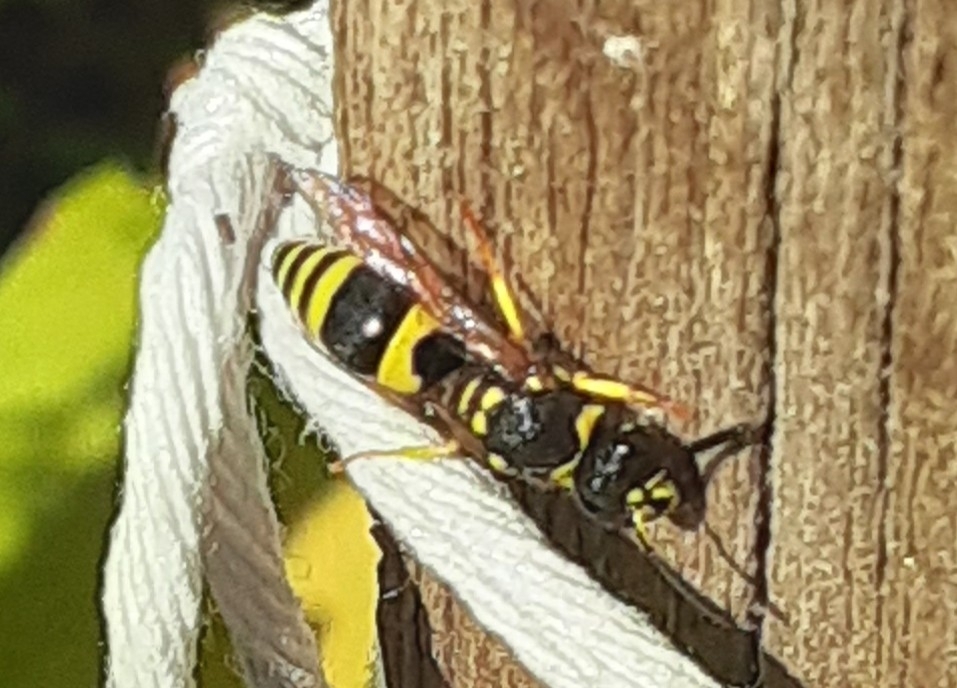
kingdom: Animalia
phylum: Arthropoda
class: Insecta
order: Hymenoptera
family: Vespidae
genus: Ancistrocerus
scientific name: Ancistrocerus gazella
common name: European tube wasp
